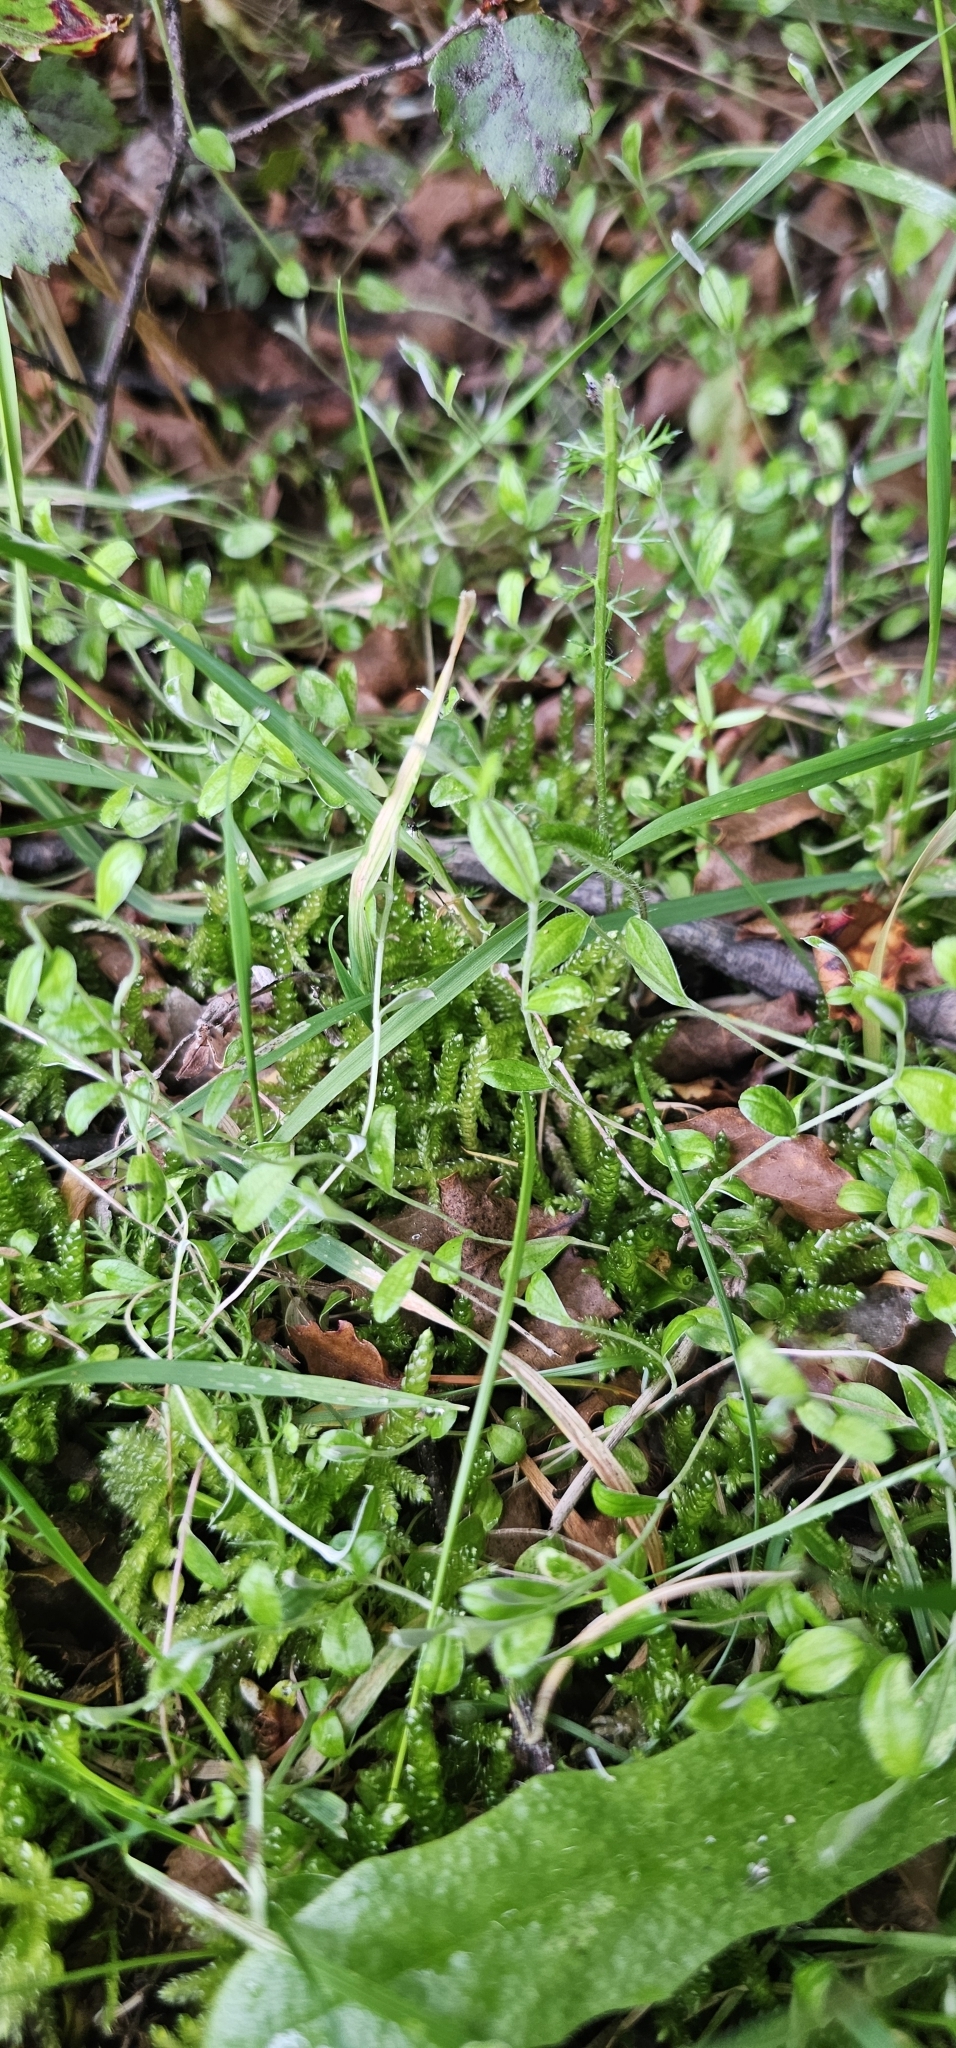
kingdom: Plantae
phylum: Tracheophyta
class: Magnoliopsida
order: Asterales
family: Asteraceae
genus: Helichrysum
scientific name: Helichrysum filicaule
